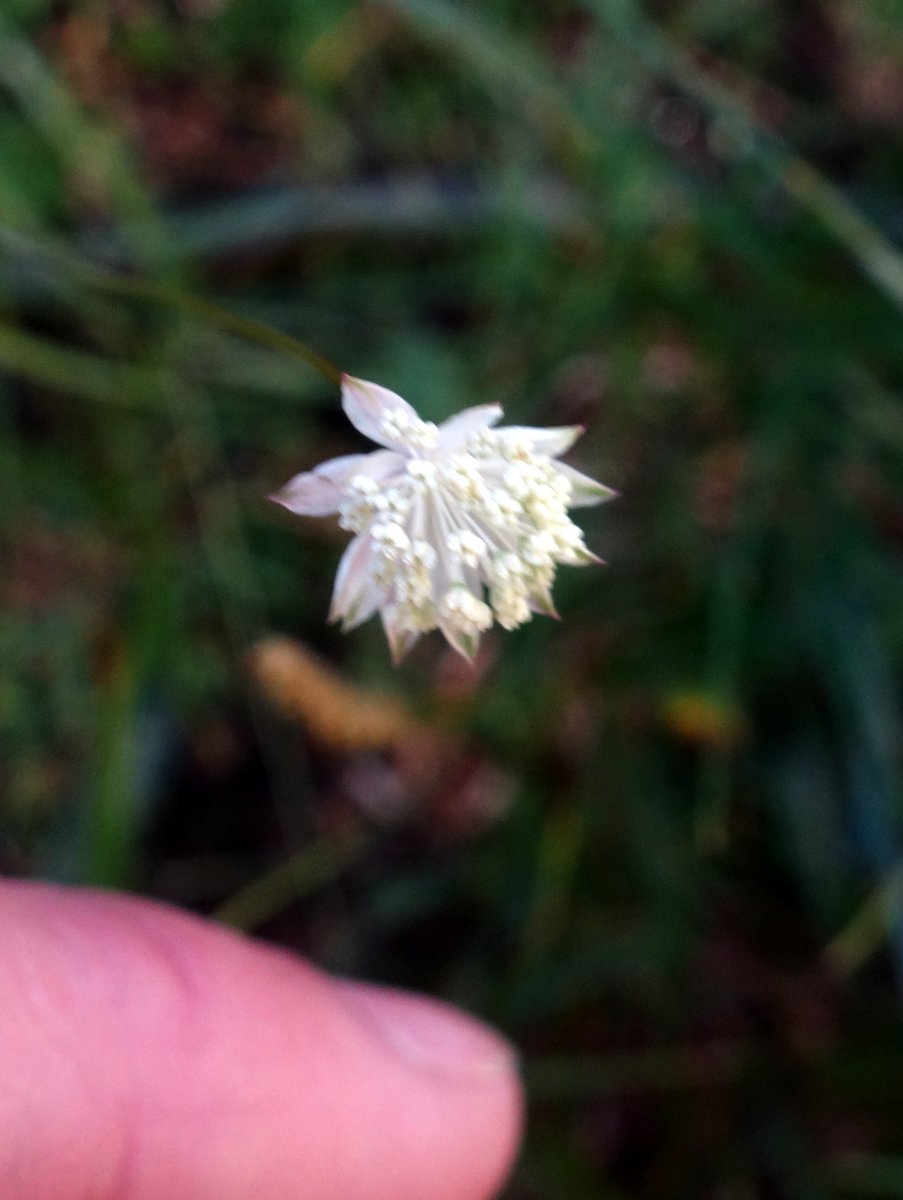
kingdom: Plantae
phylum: Tracheophyta
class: Magnoliopsida
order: Apiales
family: Apiaceae
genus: Astrantia
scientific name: Astrantia minor
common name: Lesser masterwort
